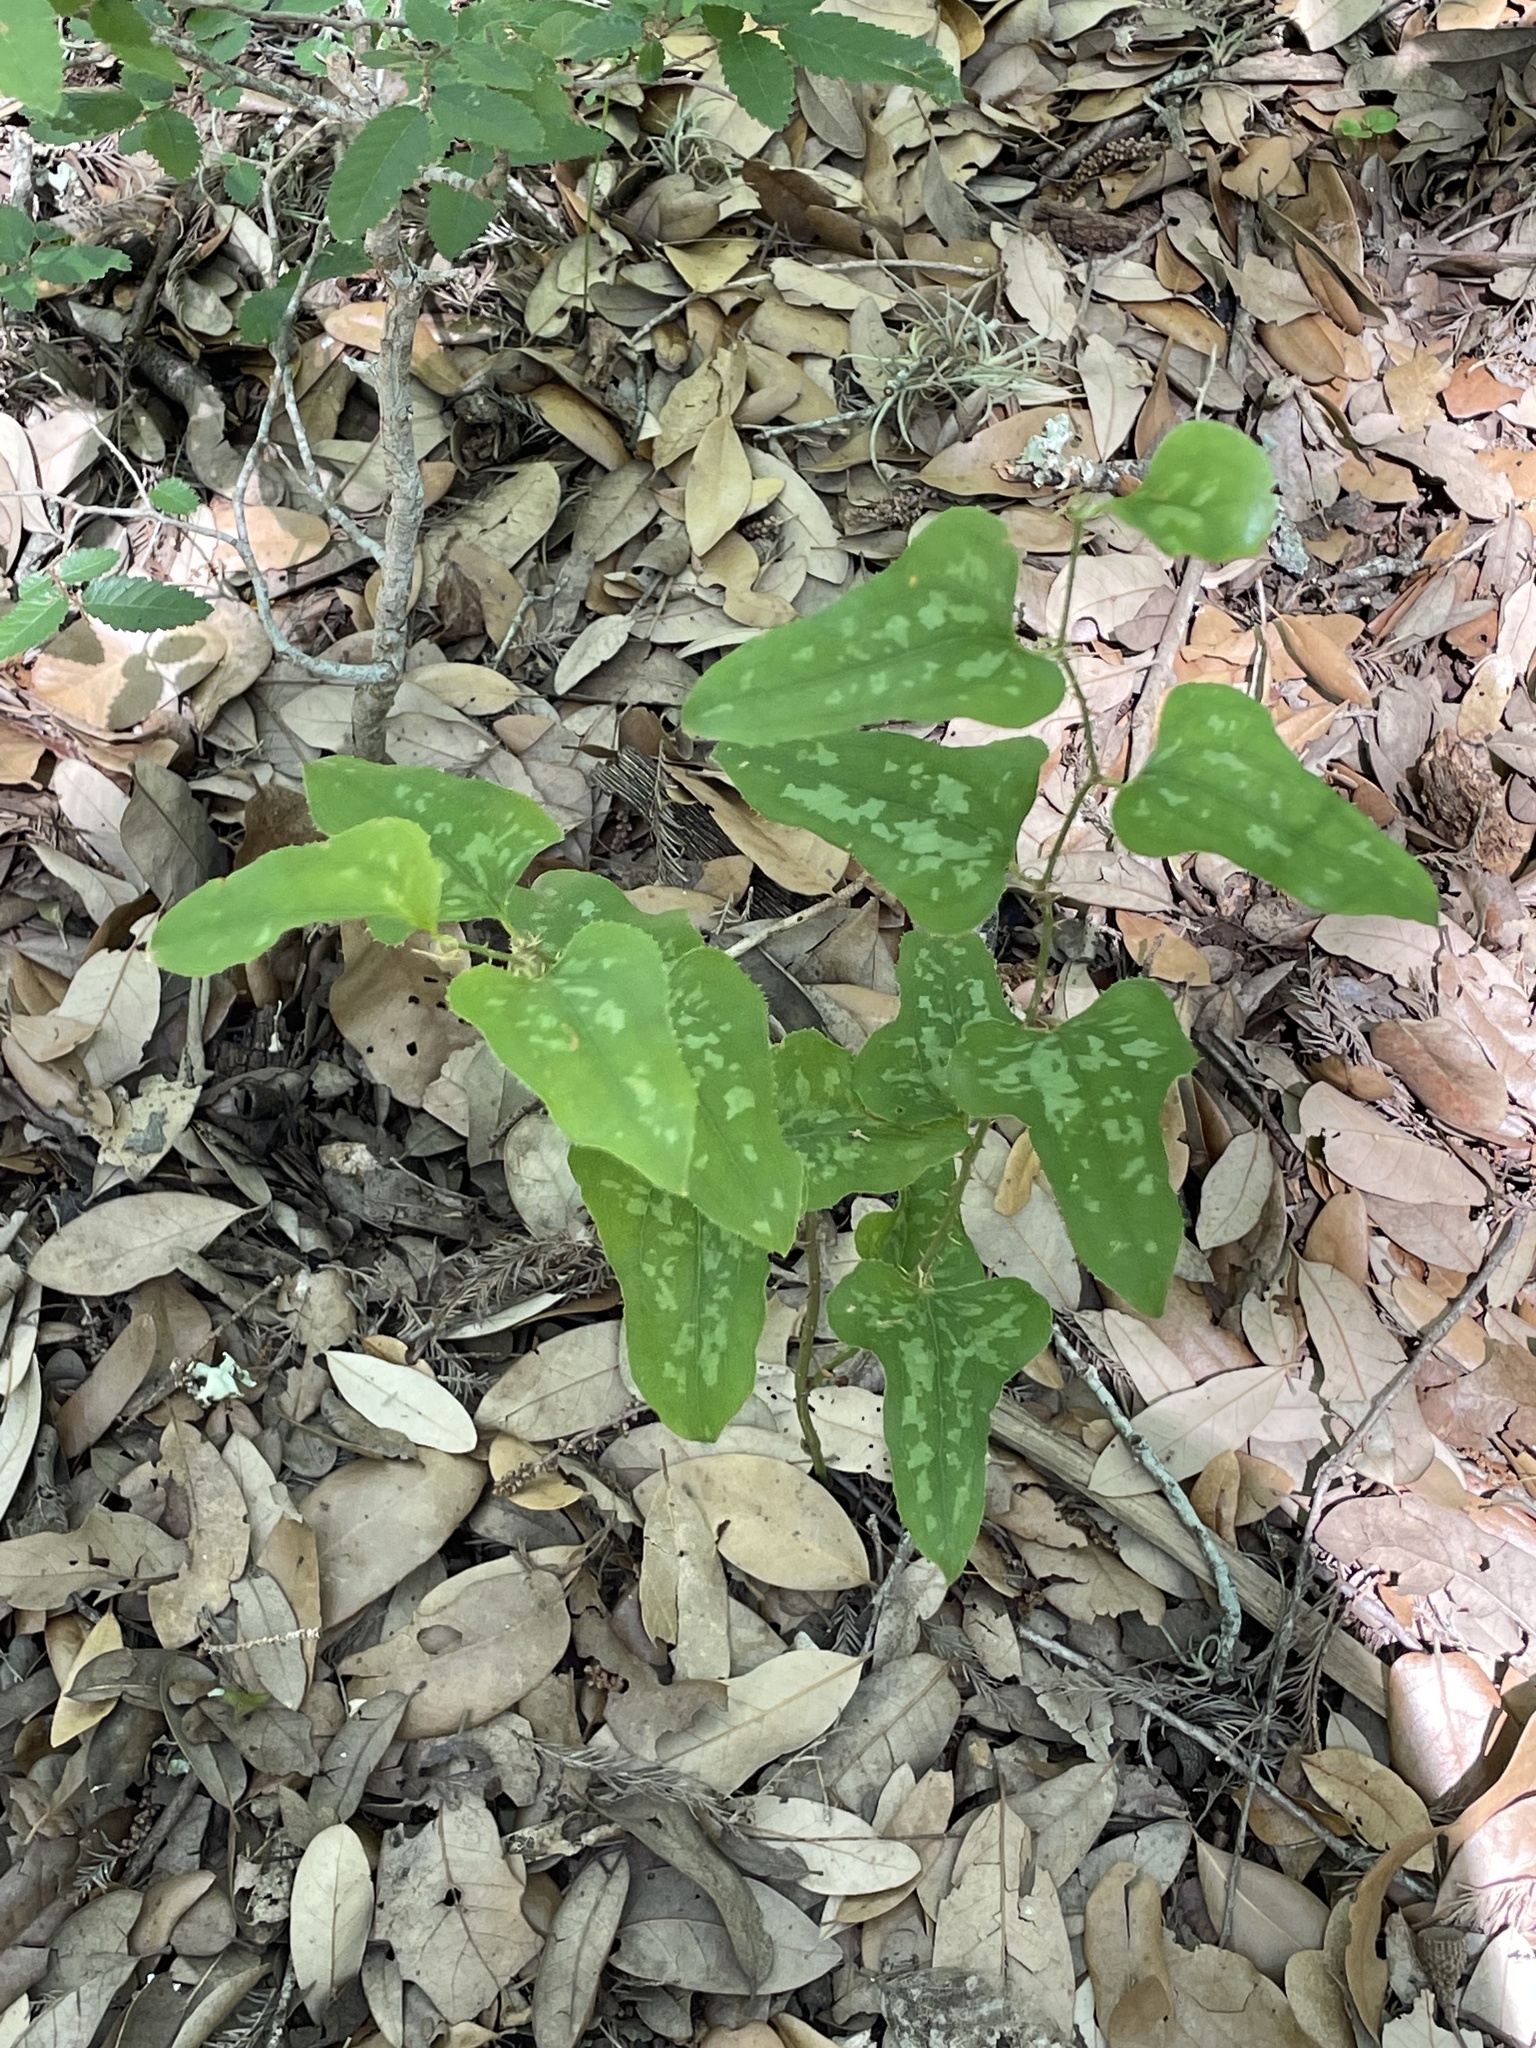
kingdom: Plantae
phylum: Tracheophyta
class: Liliopsida
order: Liliales
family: Smilacaceae
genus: Smilax
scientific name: Smilax bona-nox
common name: Catbrier
